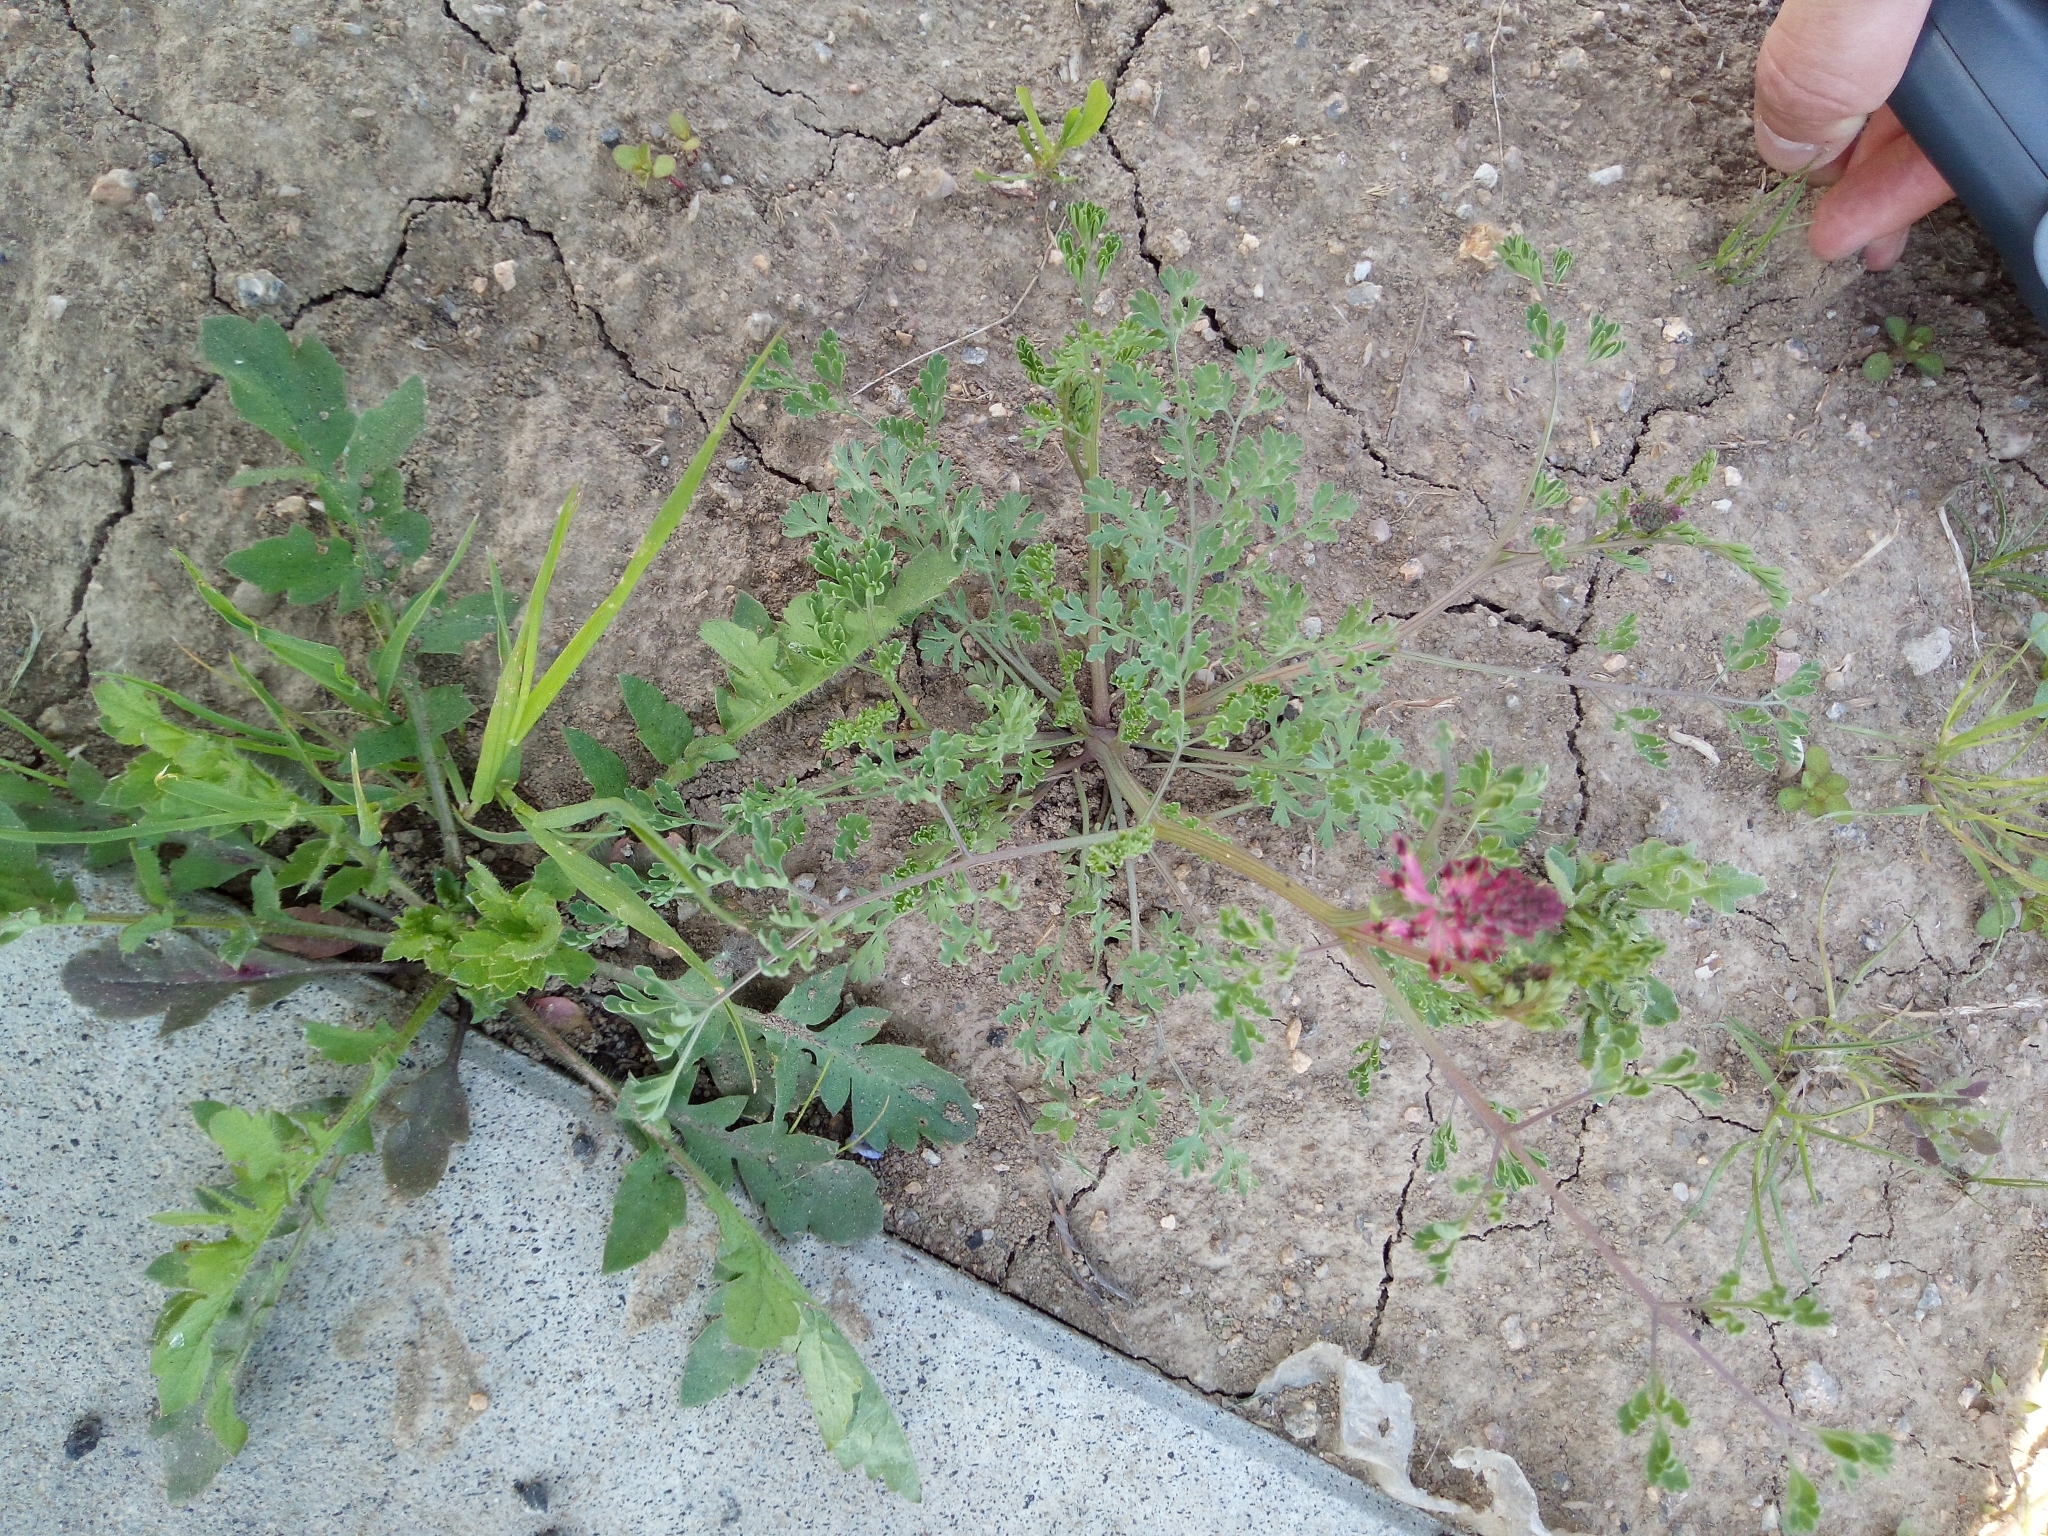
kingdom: Plantae
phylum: Tracheophyta
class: Magnoliopsida
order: Ranunculales
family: Papaveraceae
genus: Fumaria
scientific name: Fumaria officinalis
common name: Common fumitory
